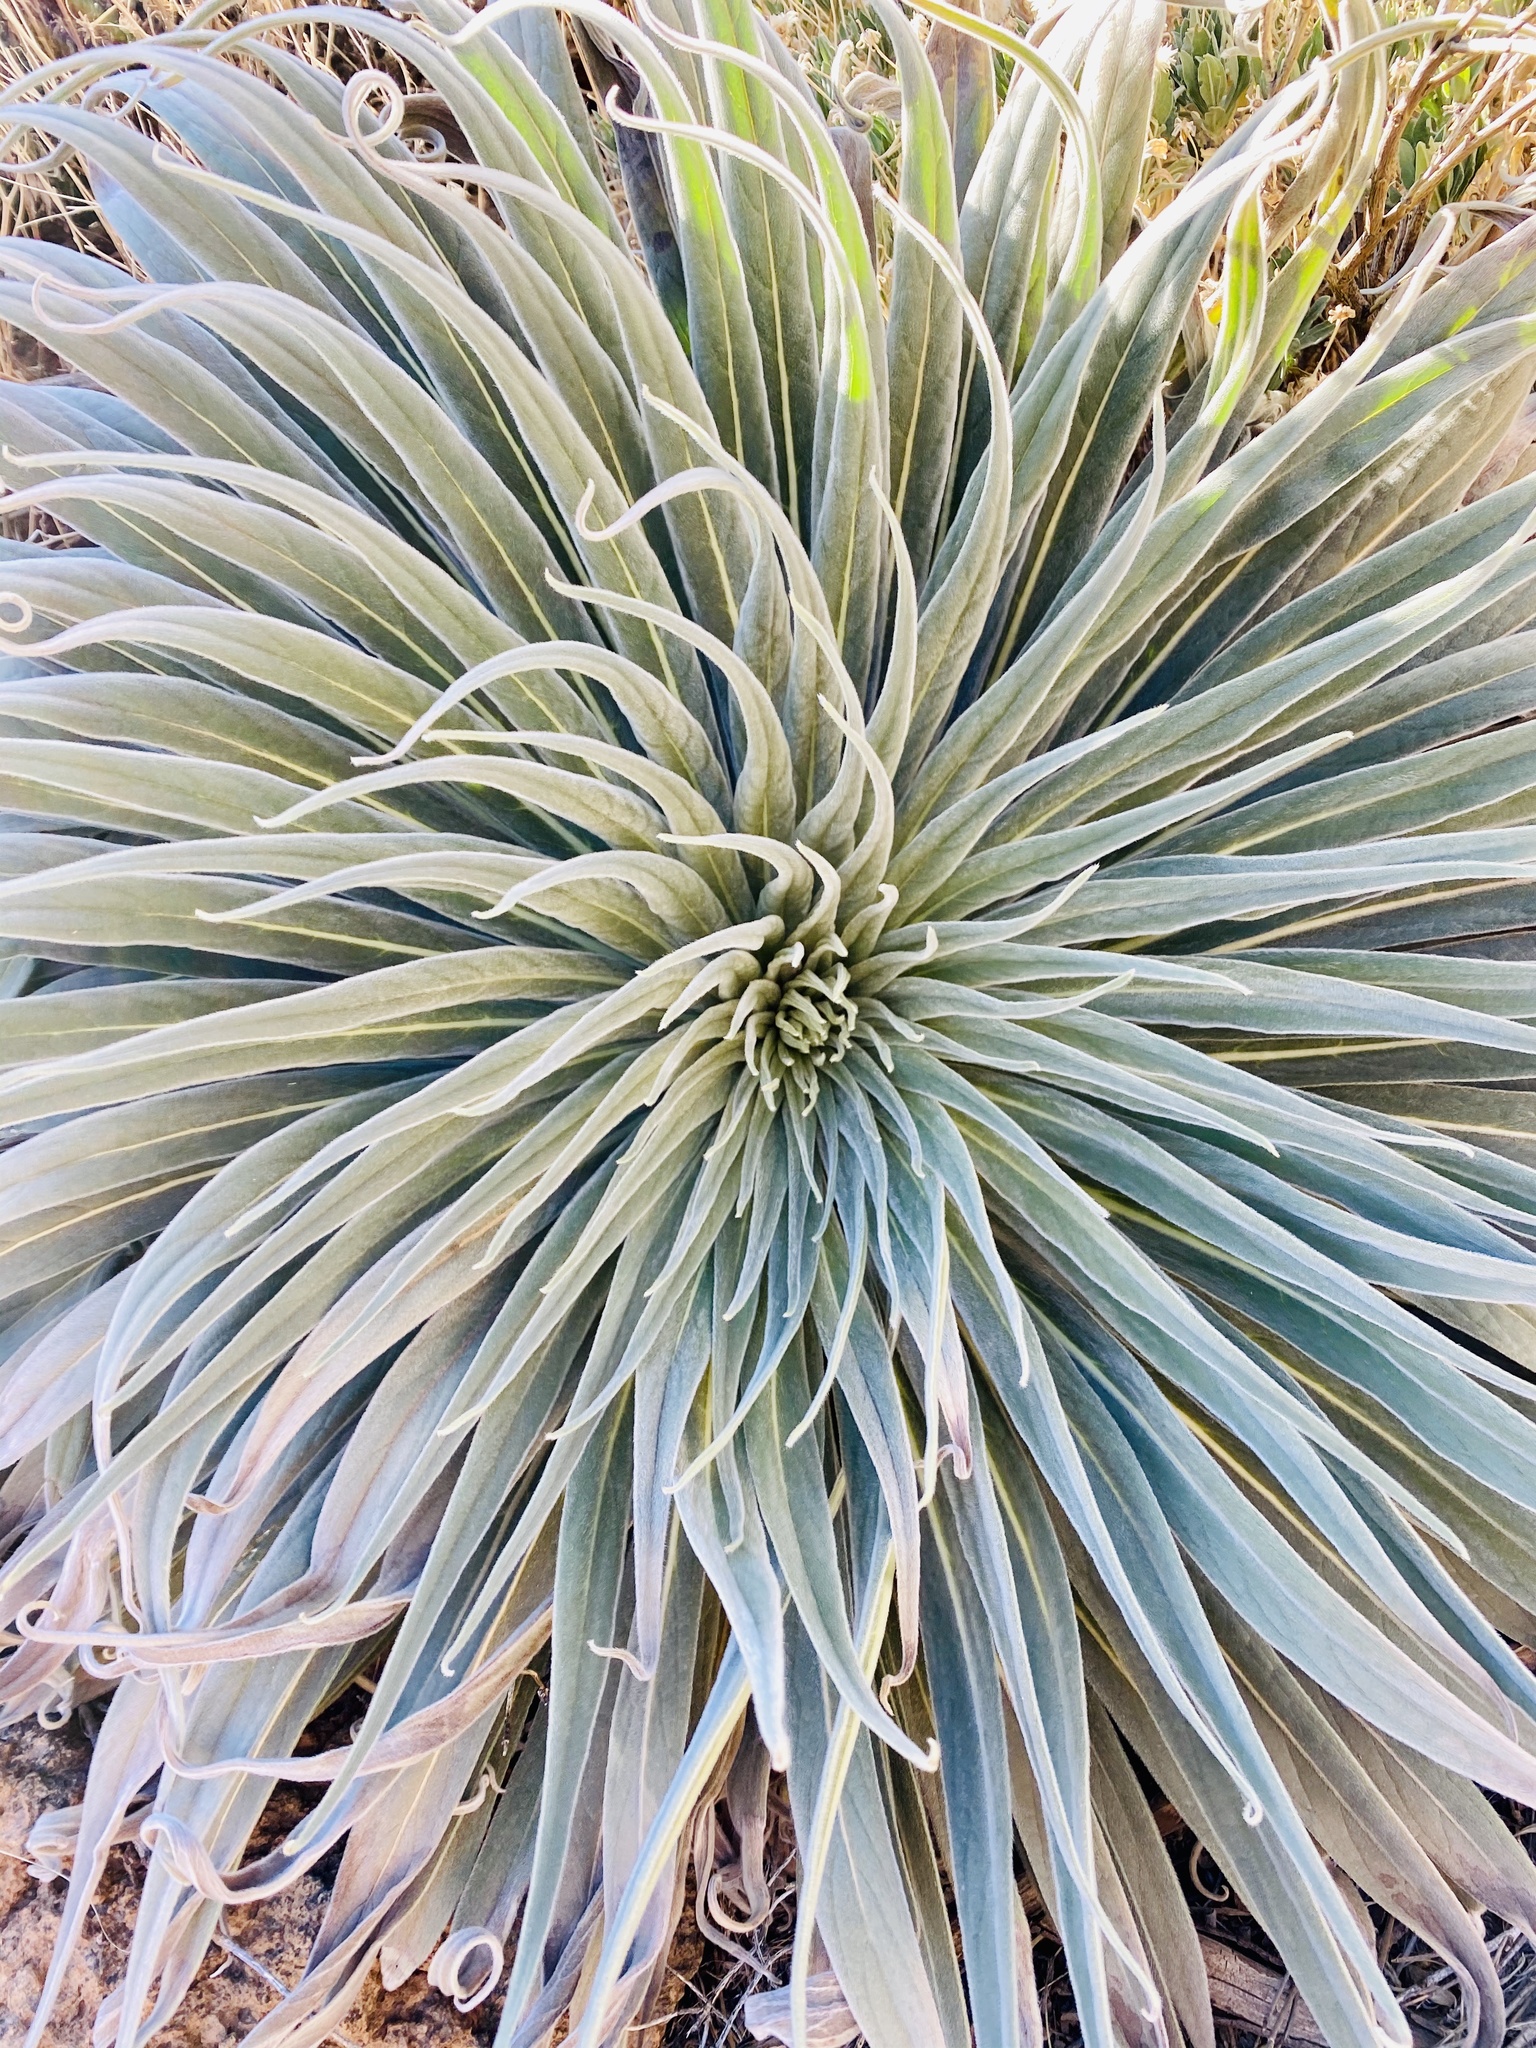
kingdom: Plantae
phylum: Tracheophyta
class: Magnoliopsida
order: Boraginales
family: Boraginaceae
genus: Echium
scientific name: Echium wildpretii
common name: Tower-of-jewels
